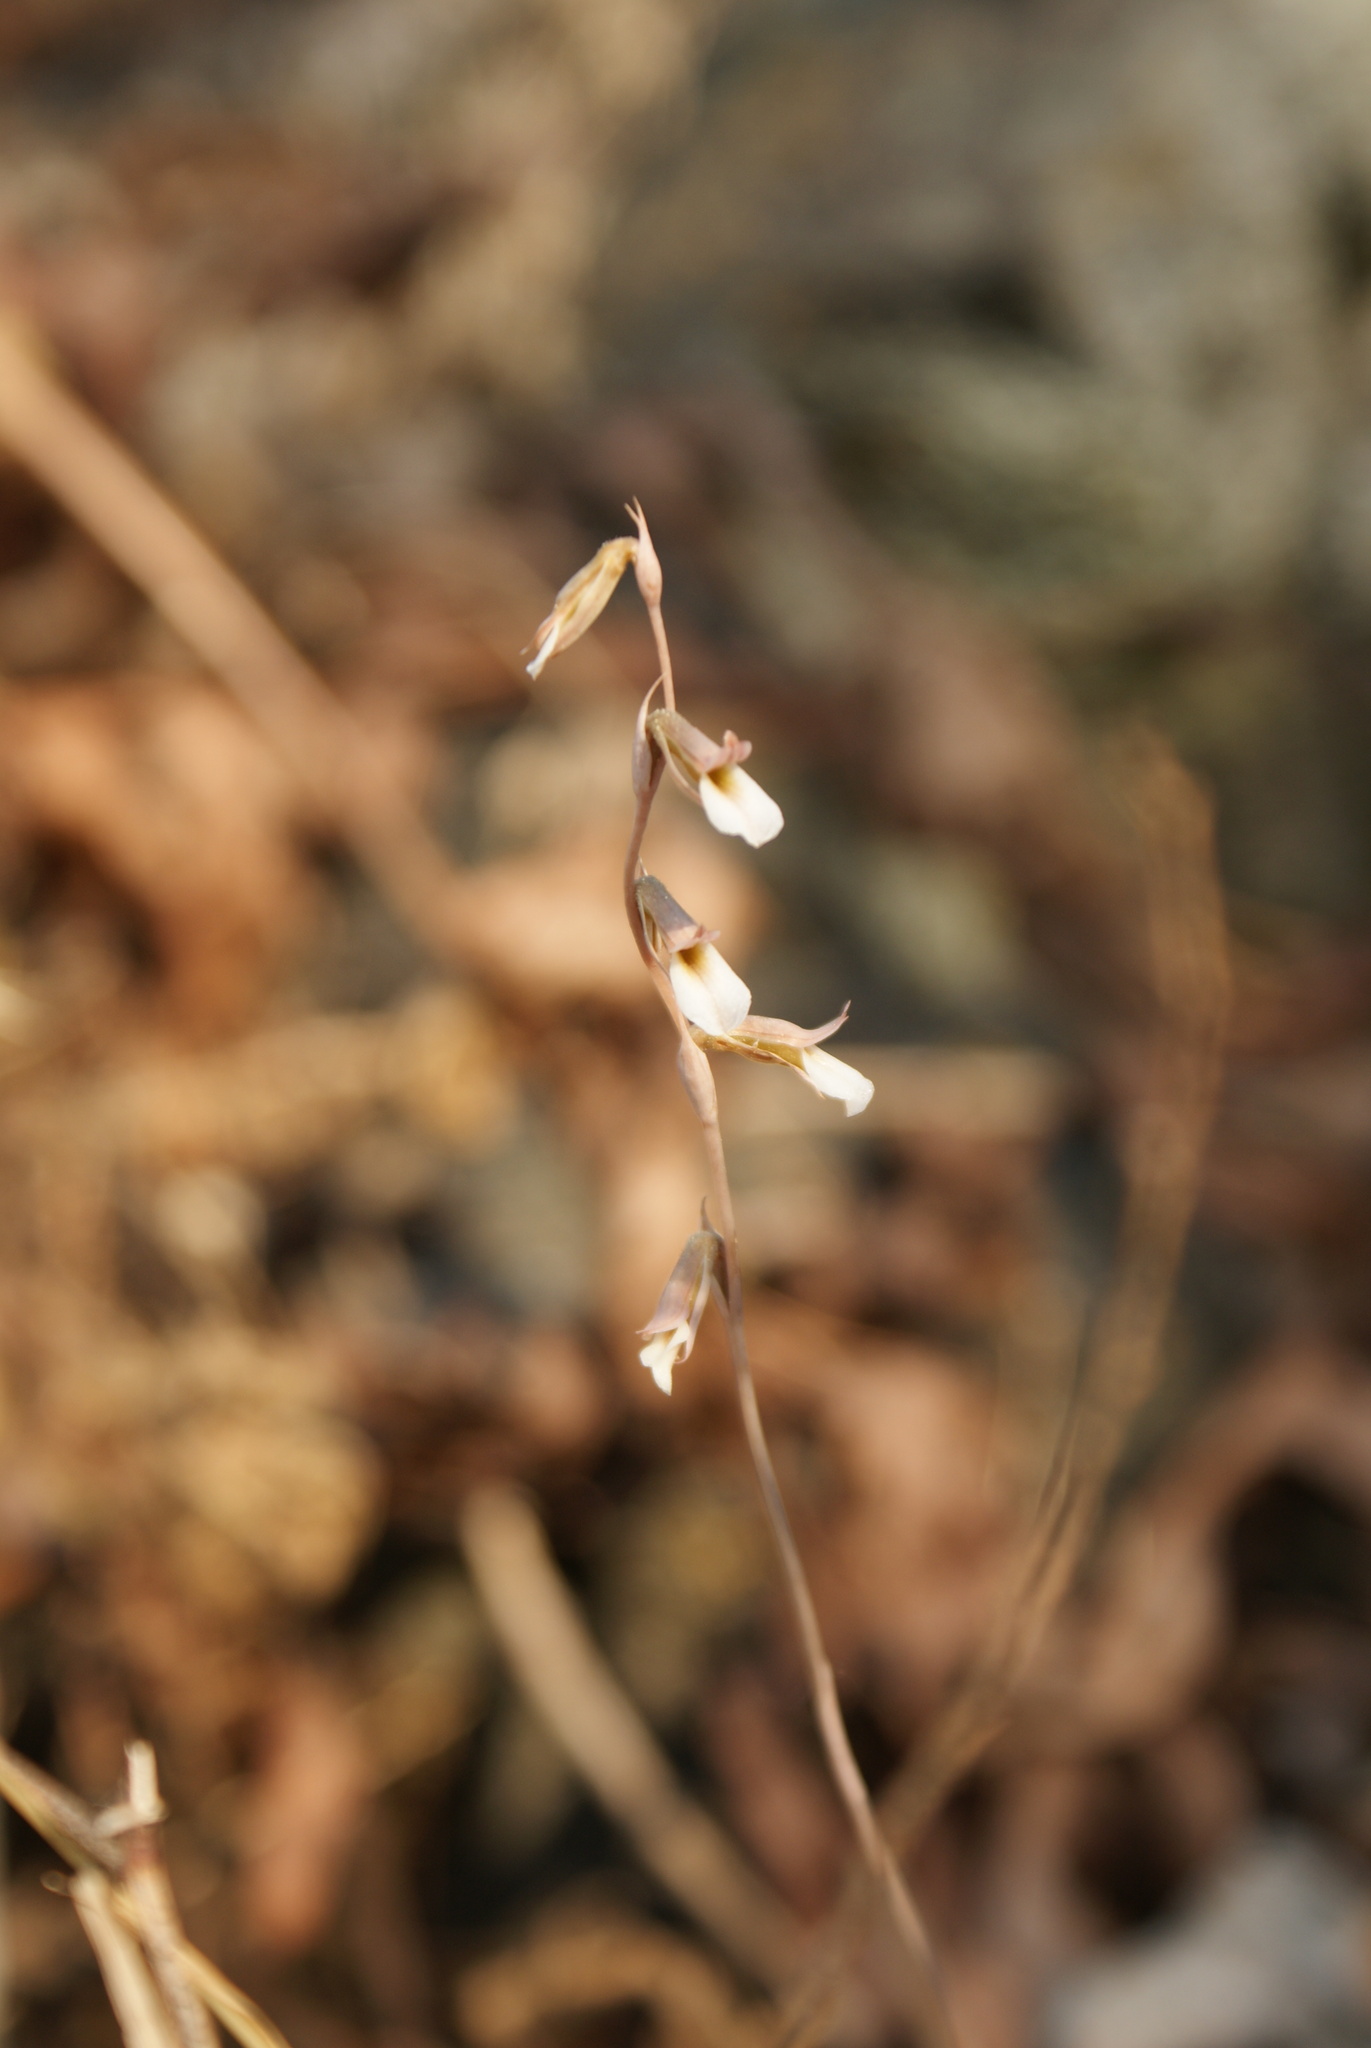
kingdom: Plantae
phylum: Tracheophyta
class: Liliopsida
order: Asparagales
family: Orchidaceae
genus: Greenwoodiella
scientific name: Greenwoodiella micrantha
